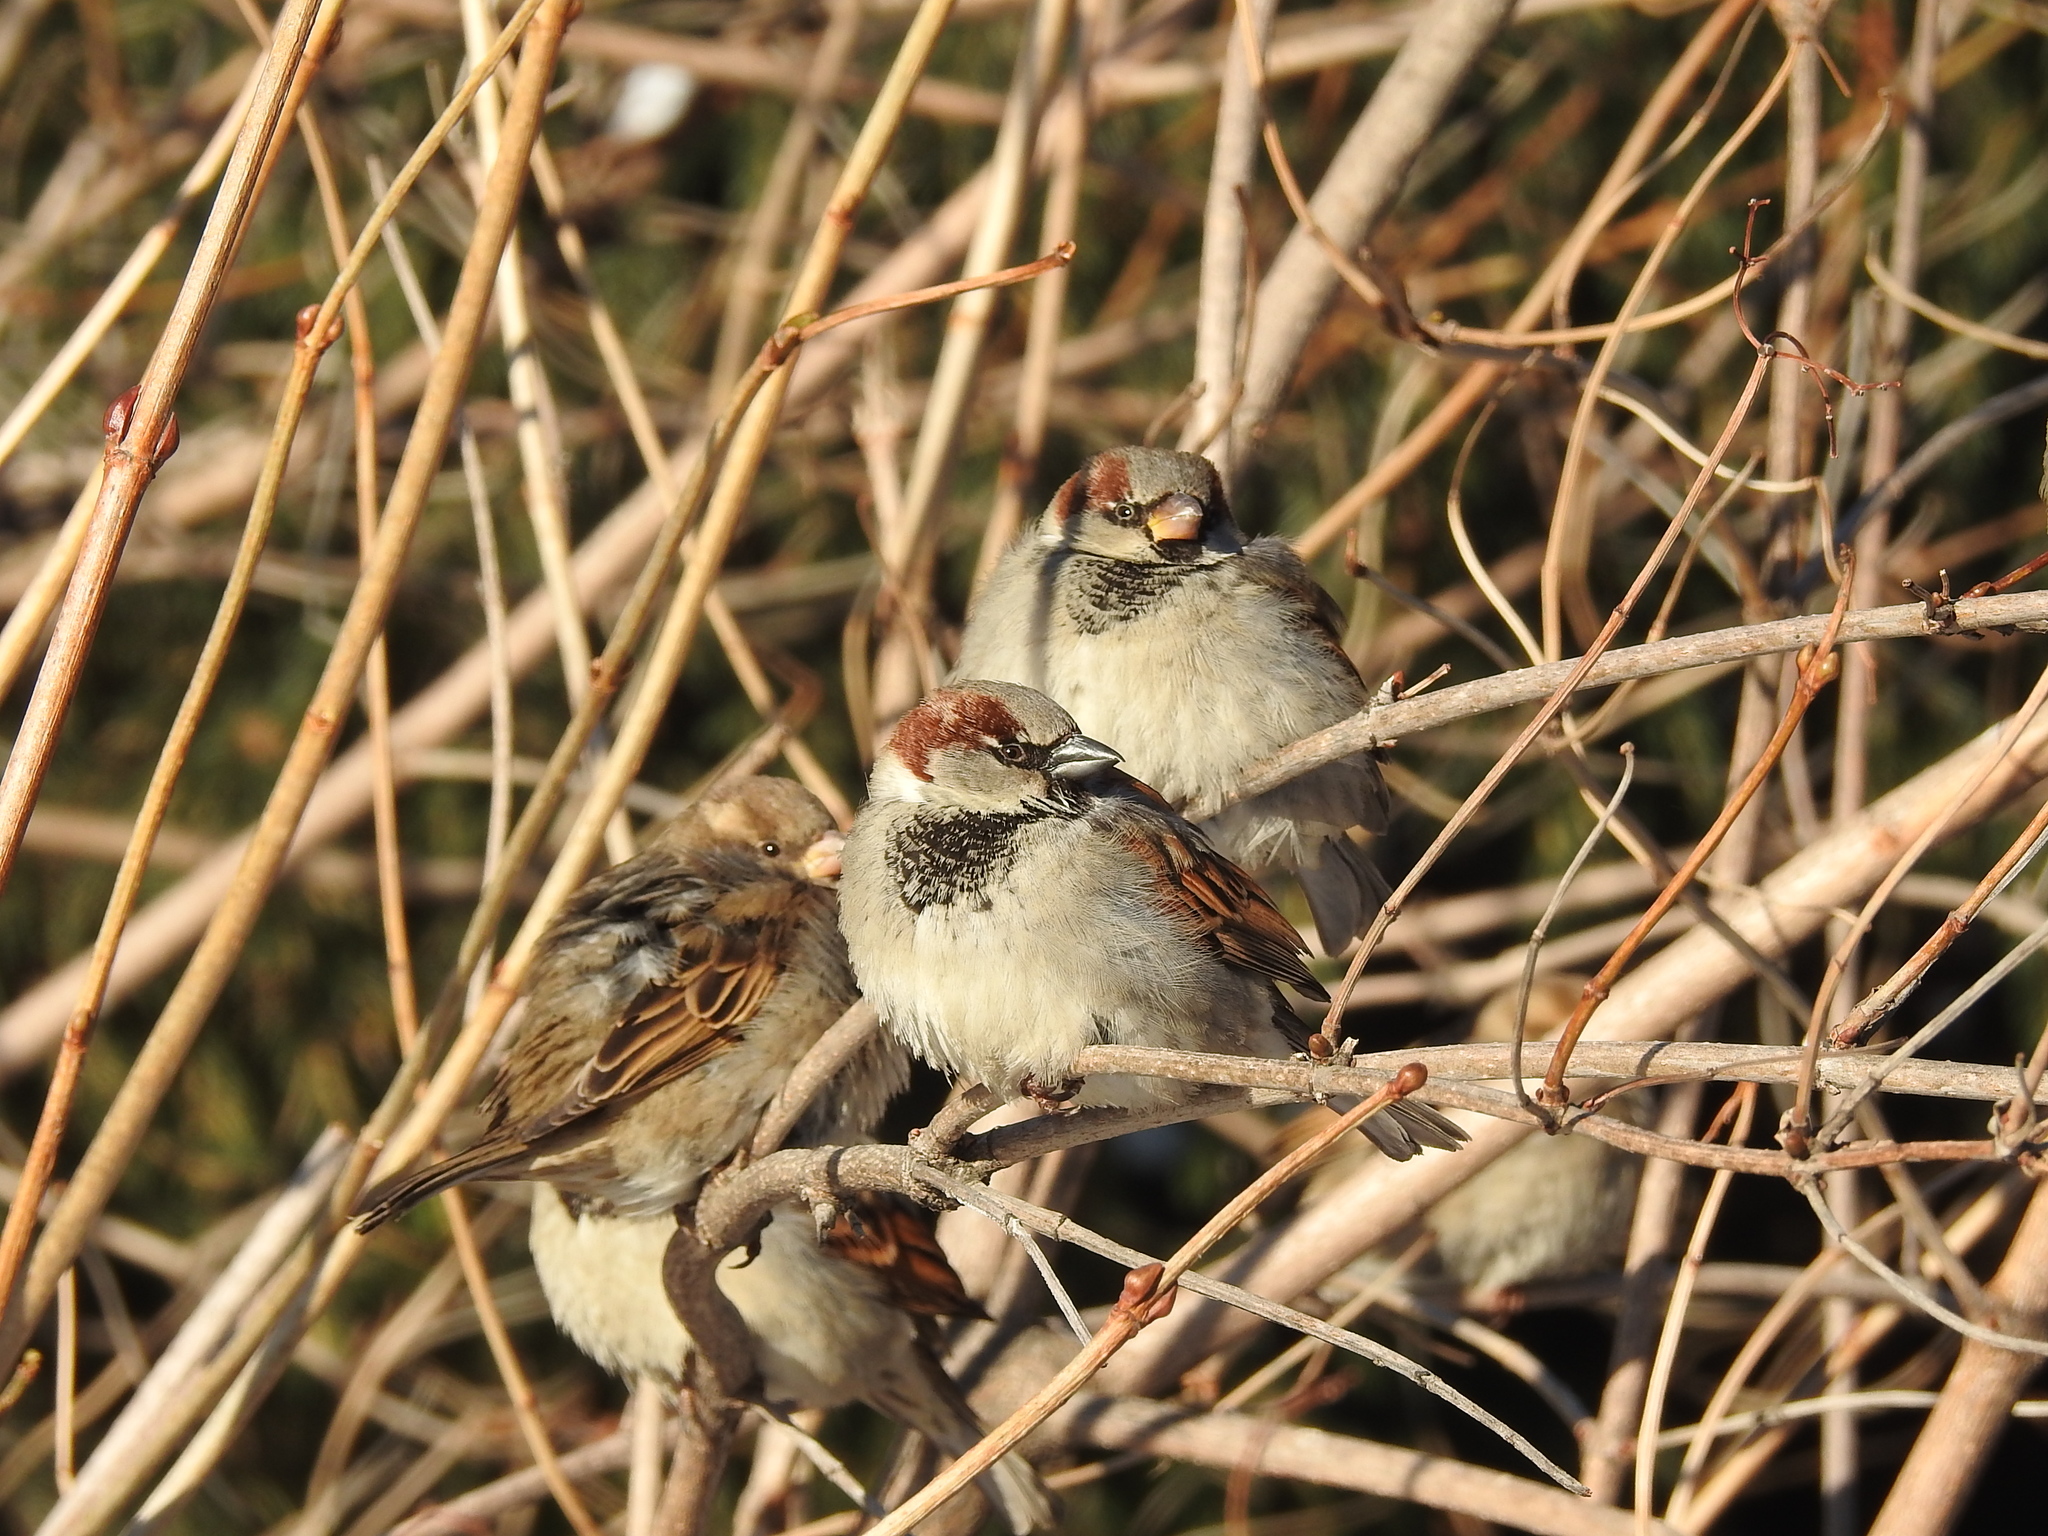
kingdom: Animalia
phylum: Chordata
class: Aves
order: Passeriformes
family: Passeridae
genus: Passer
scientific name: Passer domesticus
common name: House sparrow
